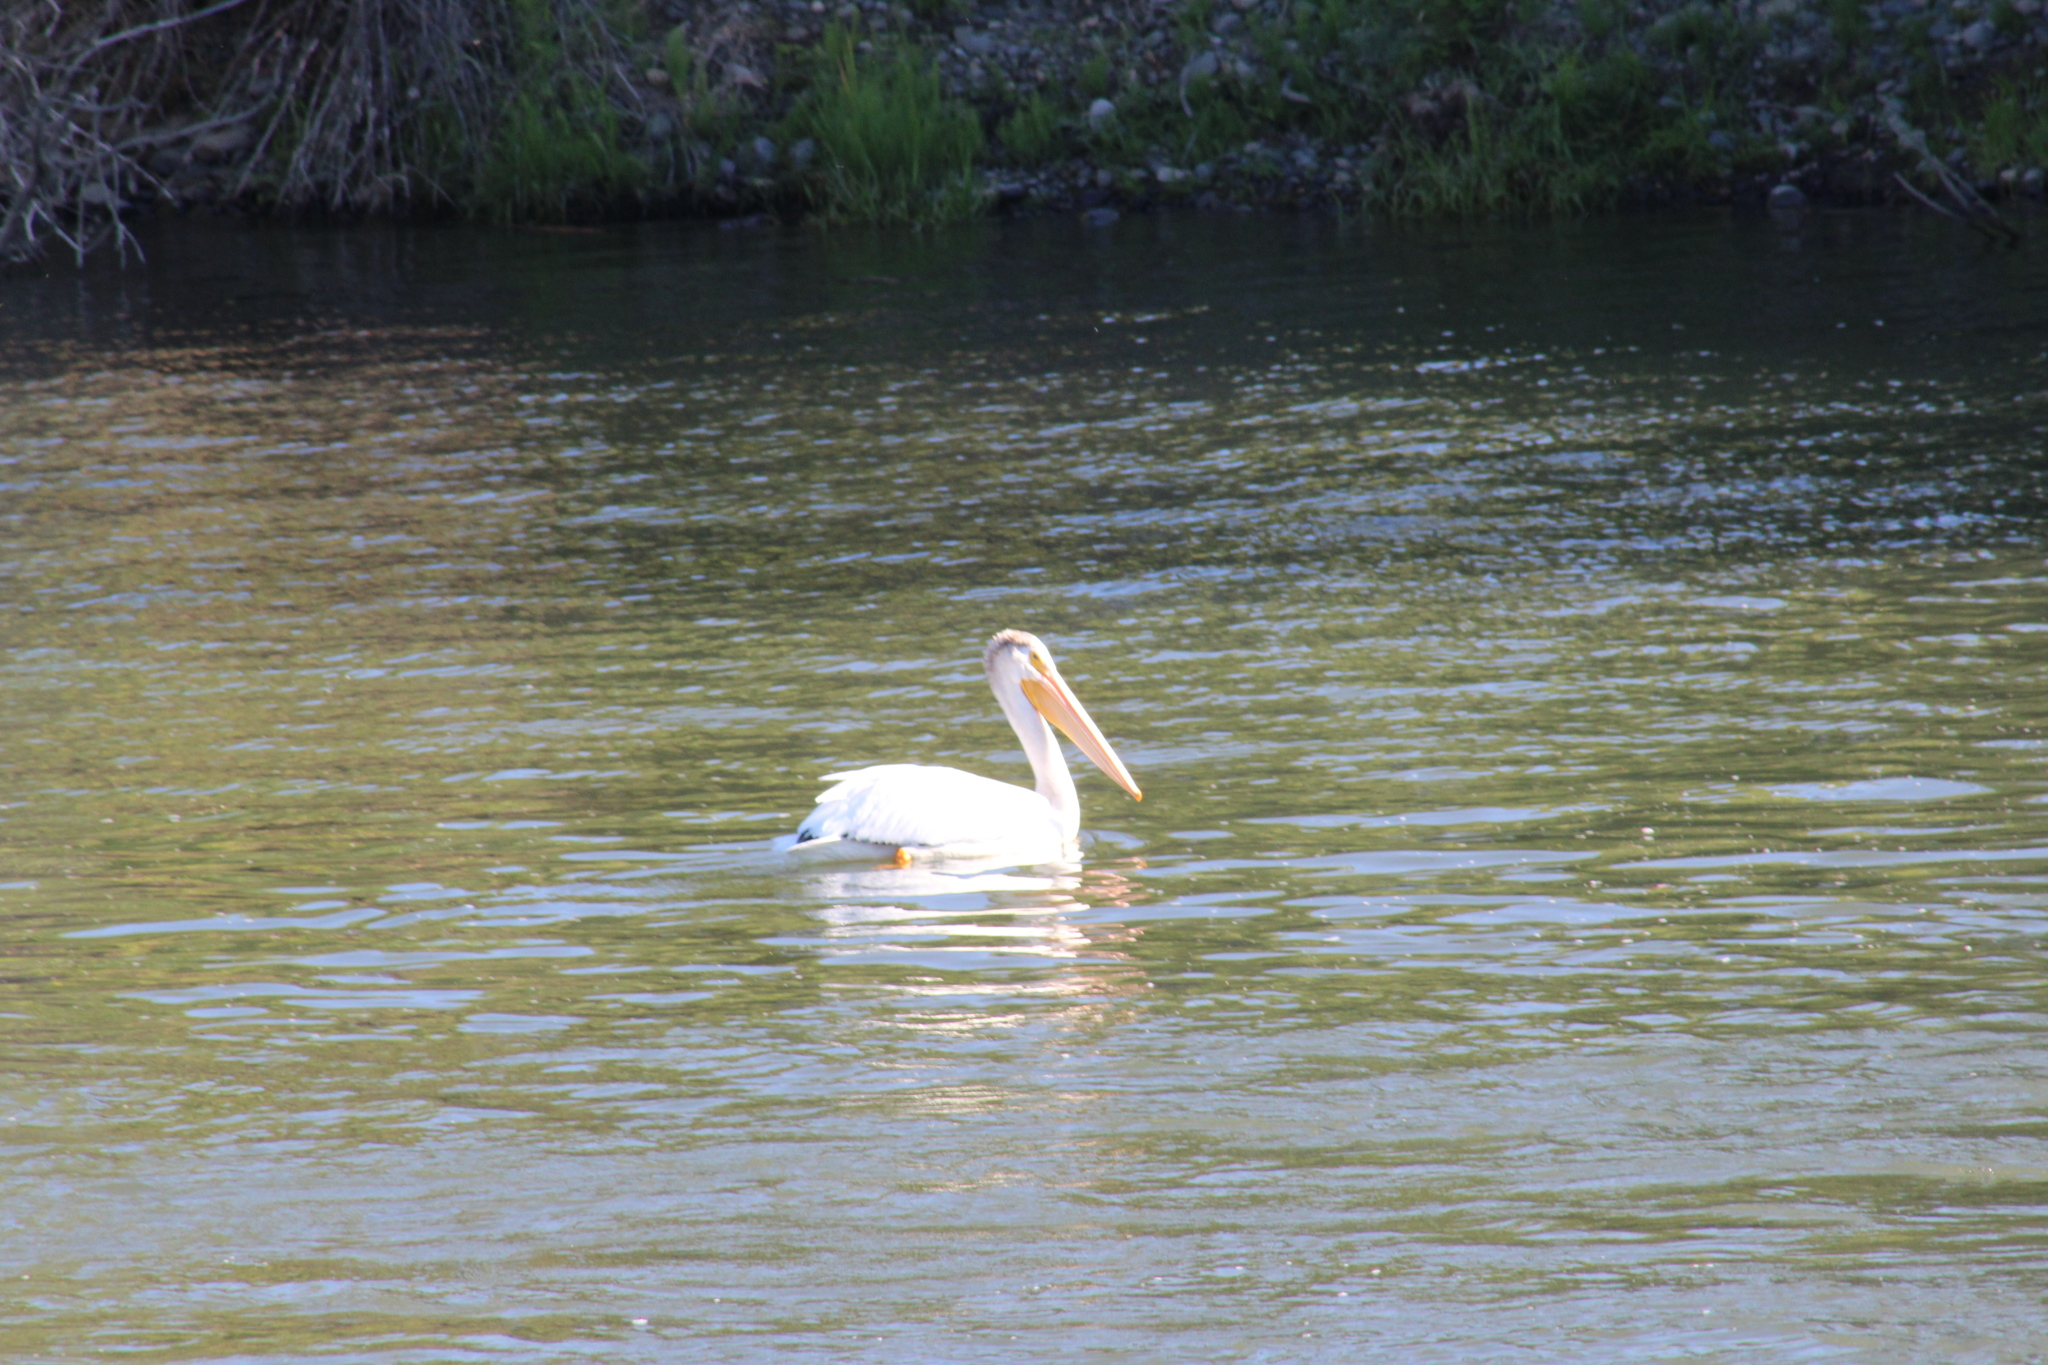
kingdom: Animalia
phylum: Chordata
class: Aves
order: Pelecaniformes
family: Pelecanidae
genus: Pelecanus
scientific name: Pelecanus erythrorhynchos
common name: American white pelican
